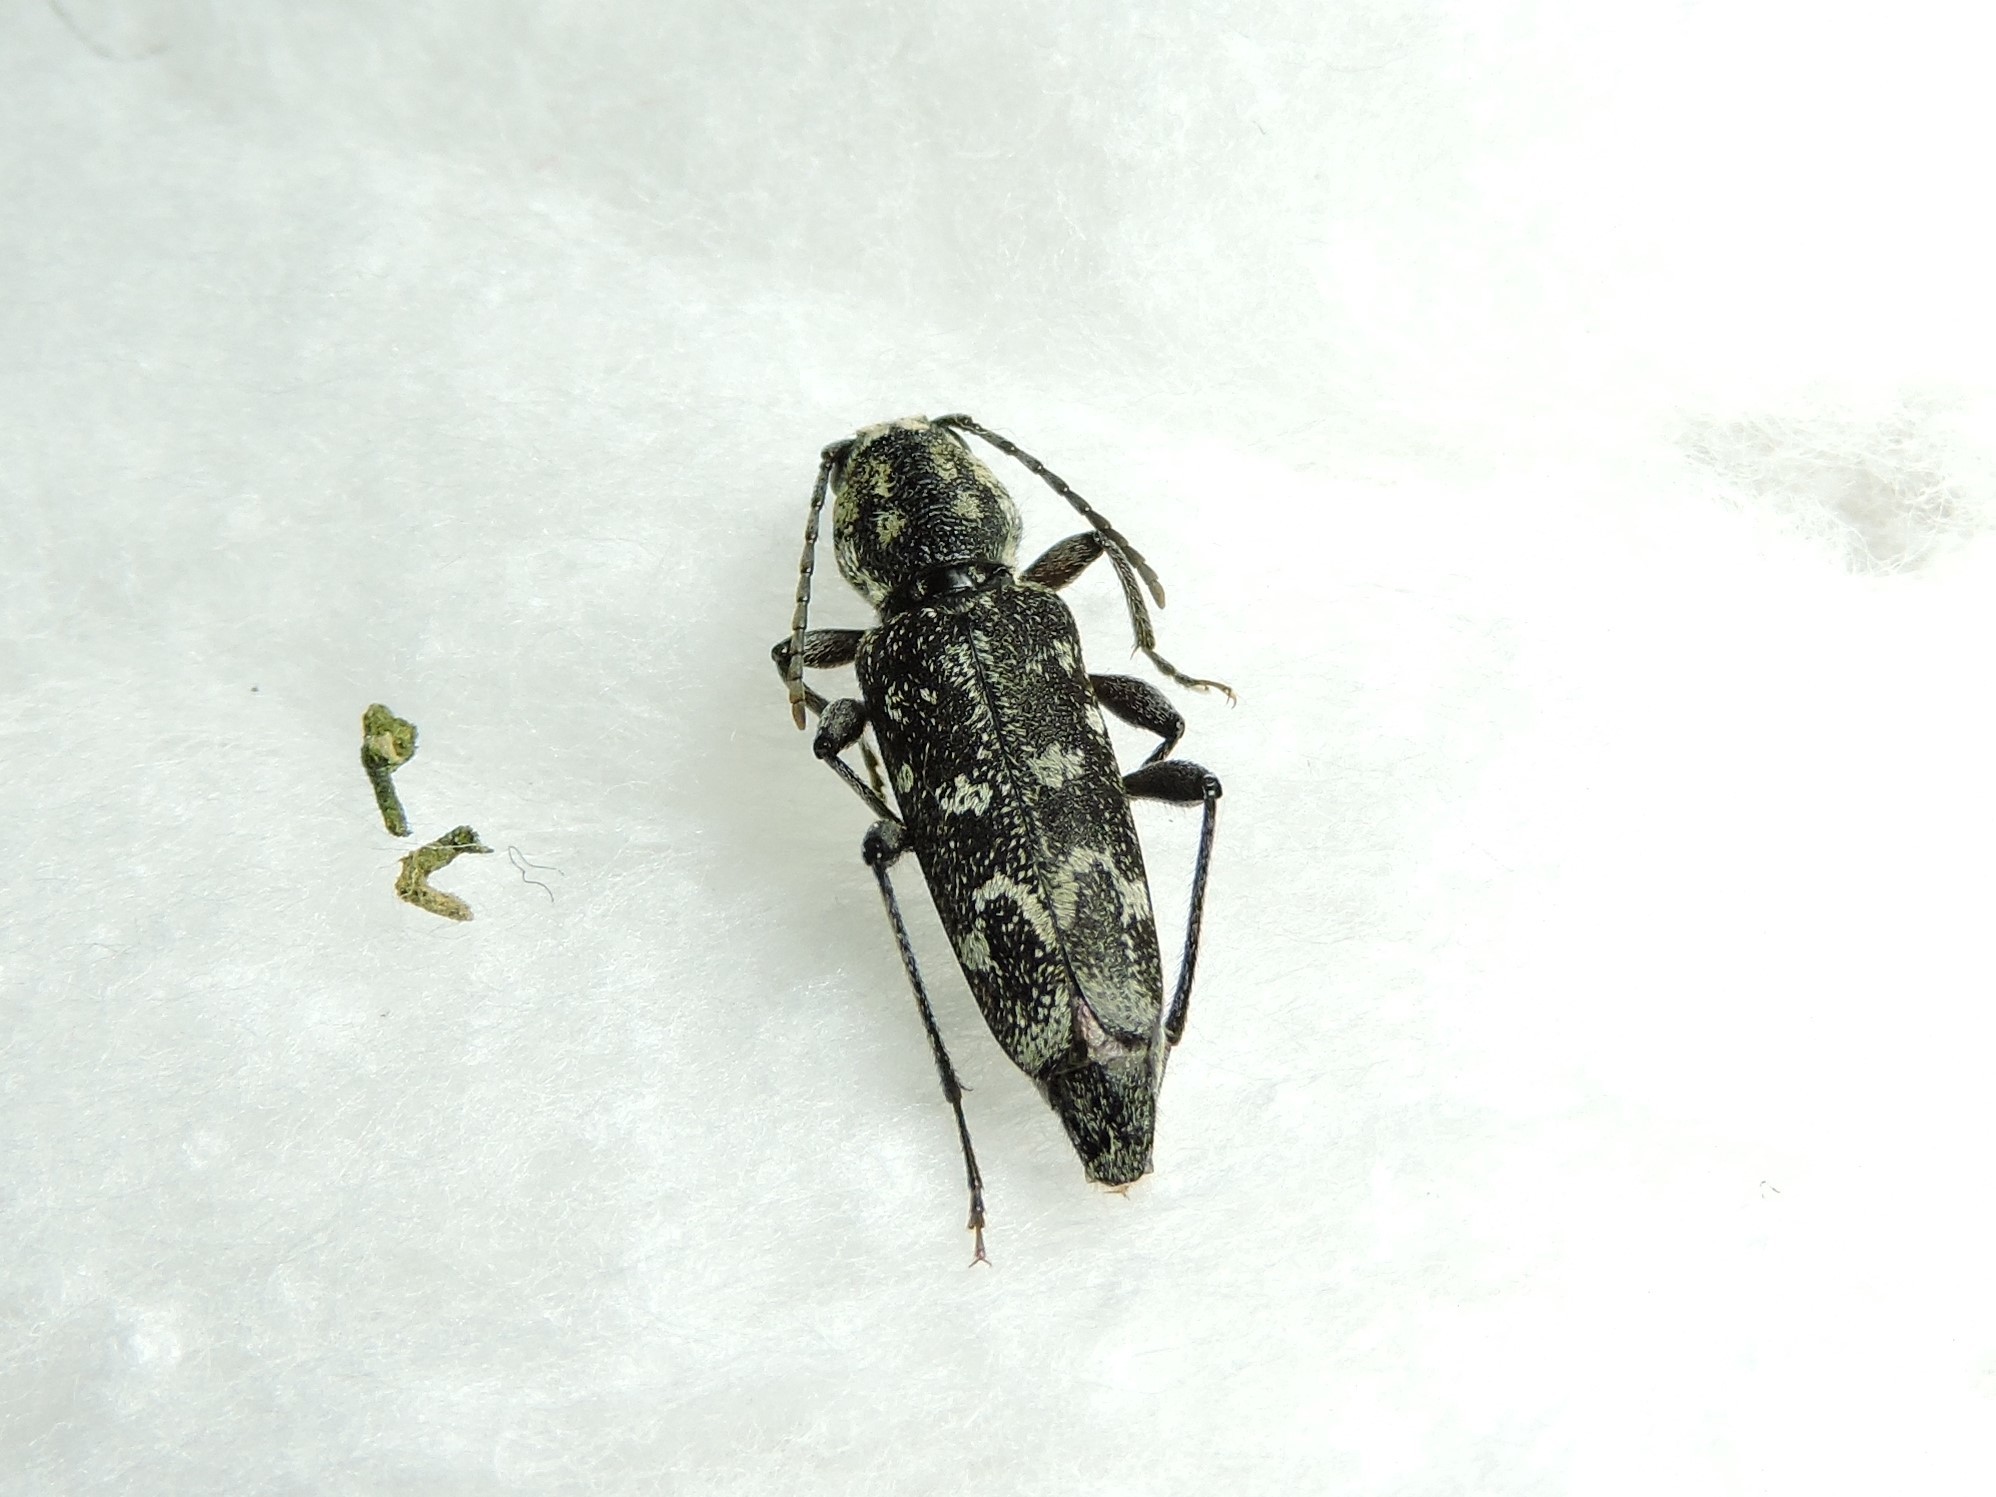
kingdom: Animalia
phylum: Arthropoda
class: Insecta
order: Coleoptera
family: Cerambycidae
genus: Xylotrechus
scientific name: Xylotrechus rusticus
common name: Grey tiger long-horned beetle
